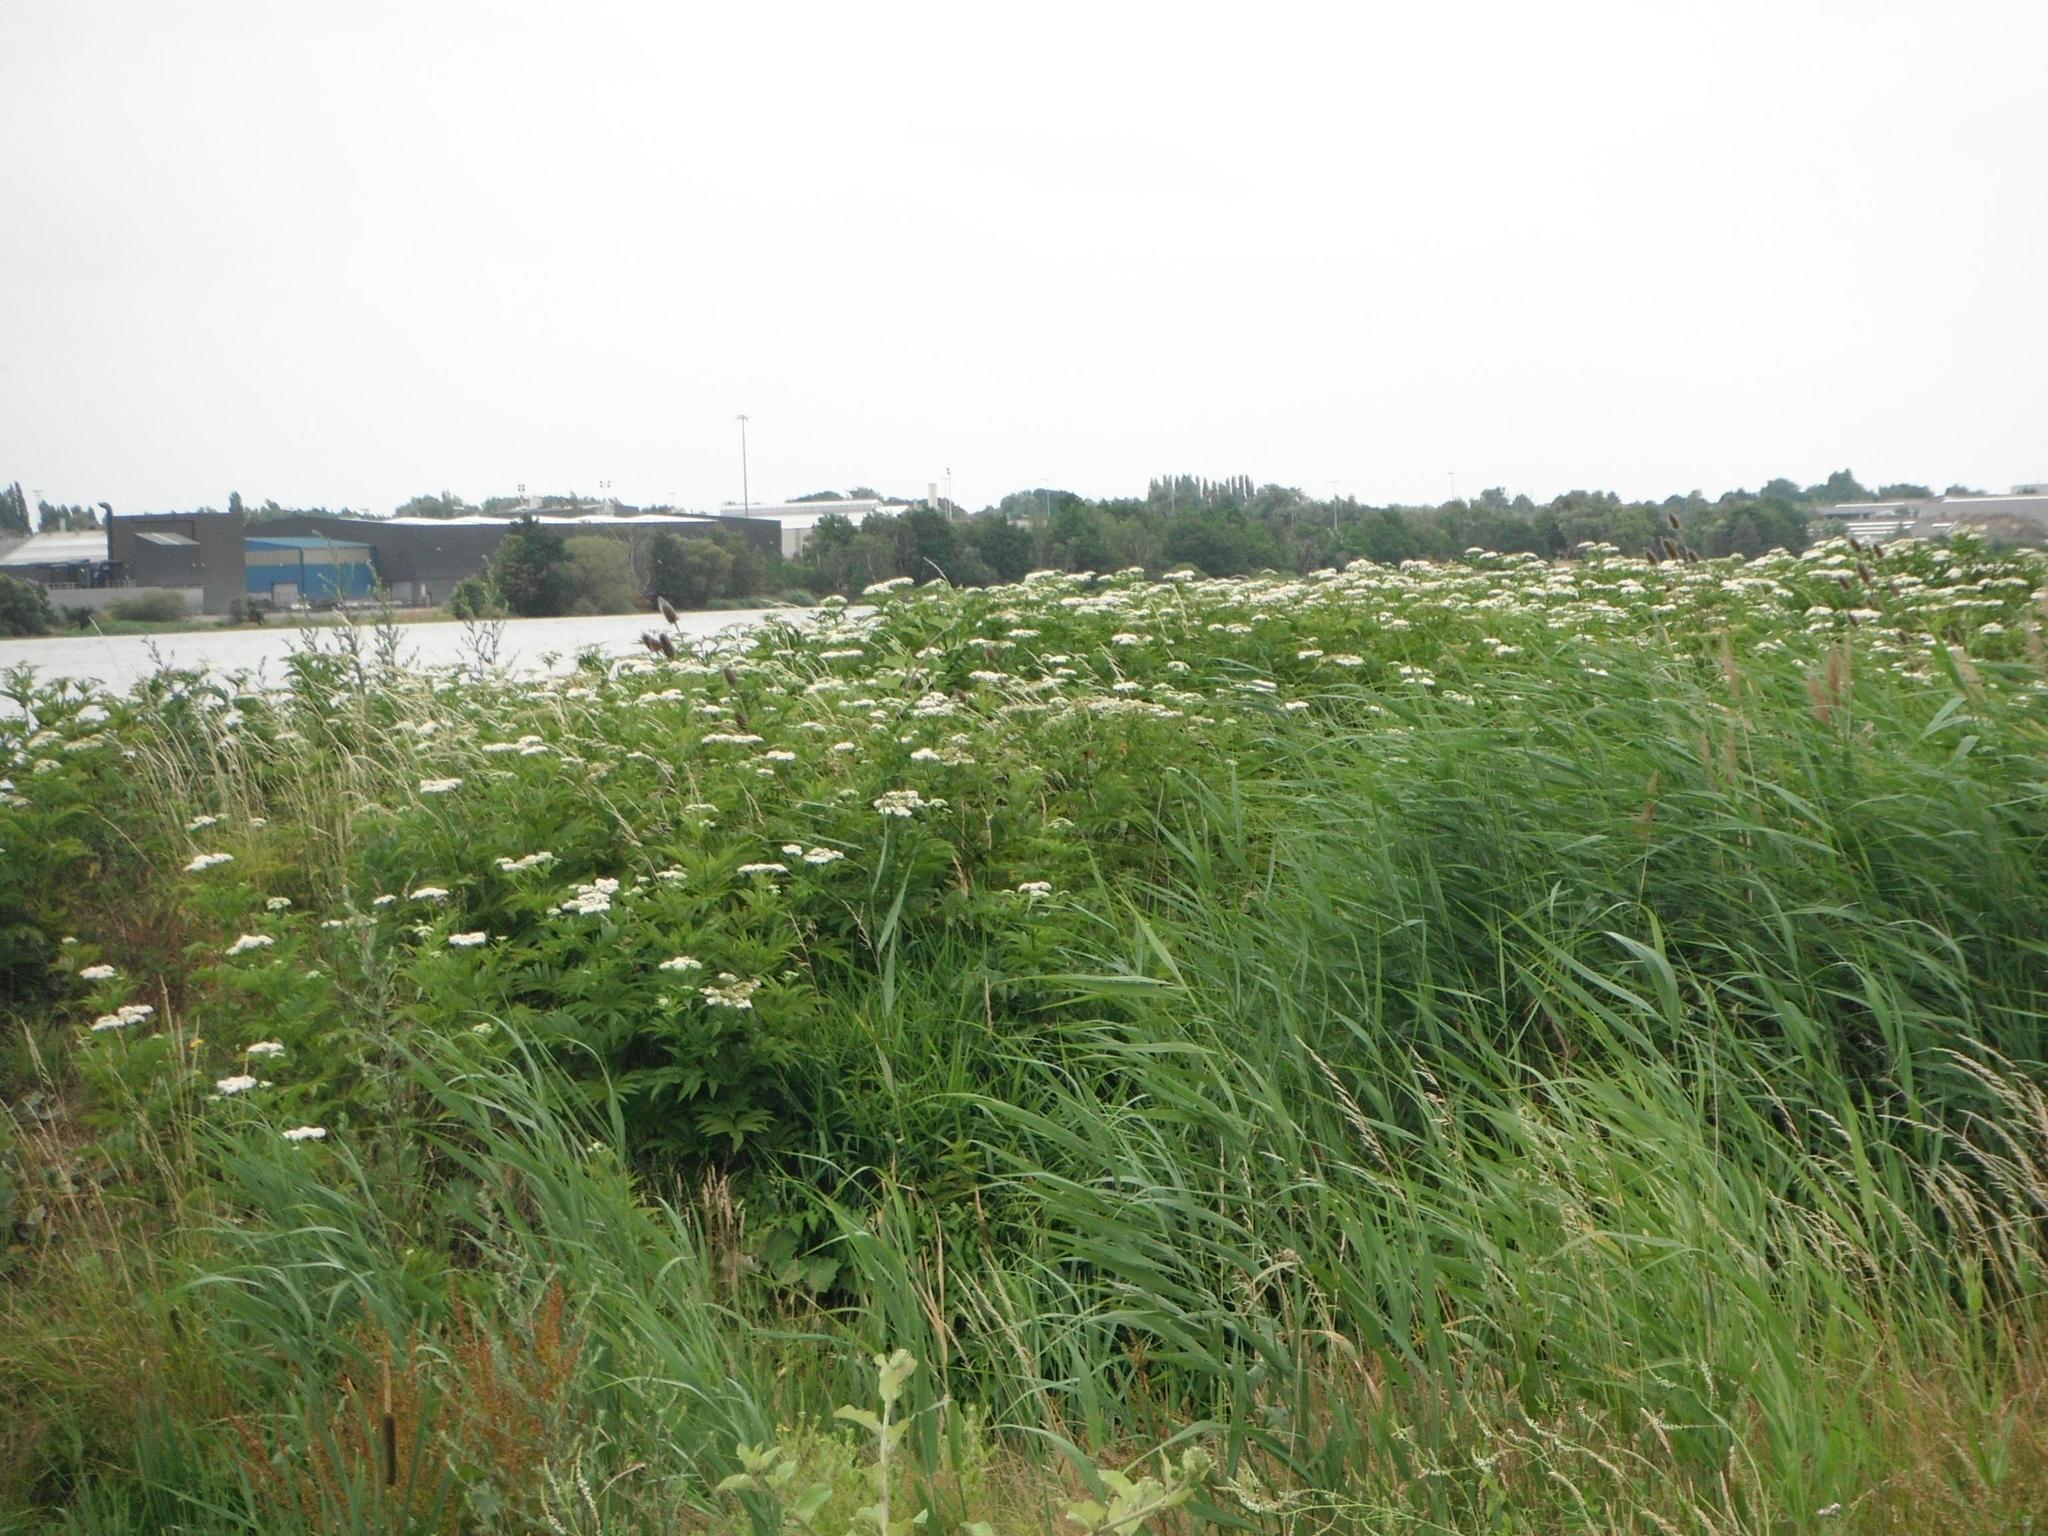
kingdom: Plantae
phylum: Tracheophyta
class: Magnoliopsida
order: Dipsacales
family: Viburnaceae
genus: Sambucus
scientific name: Sambucus ebulus
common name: Dwarf elder
